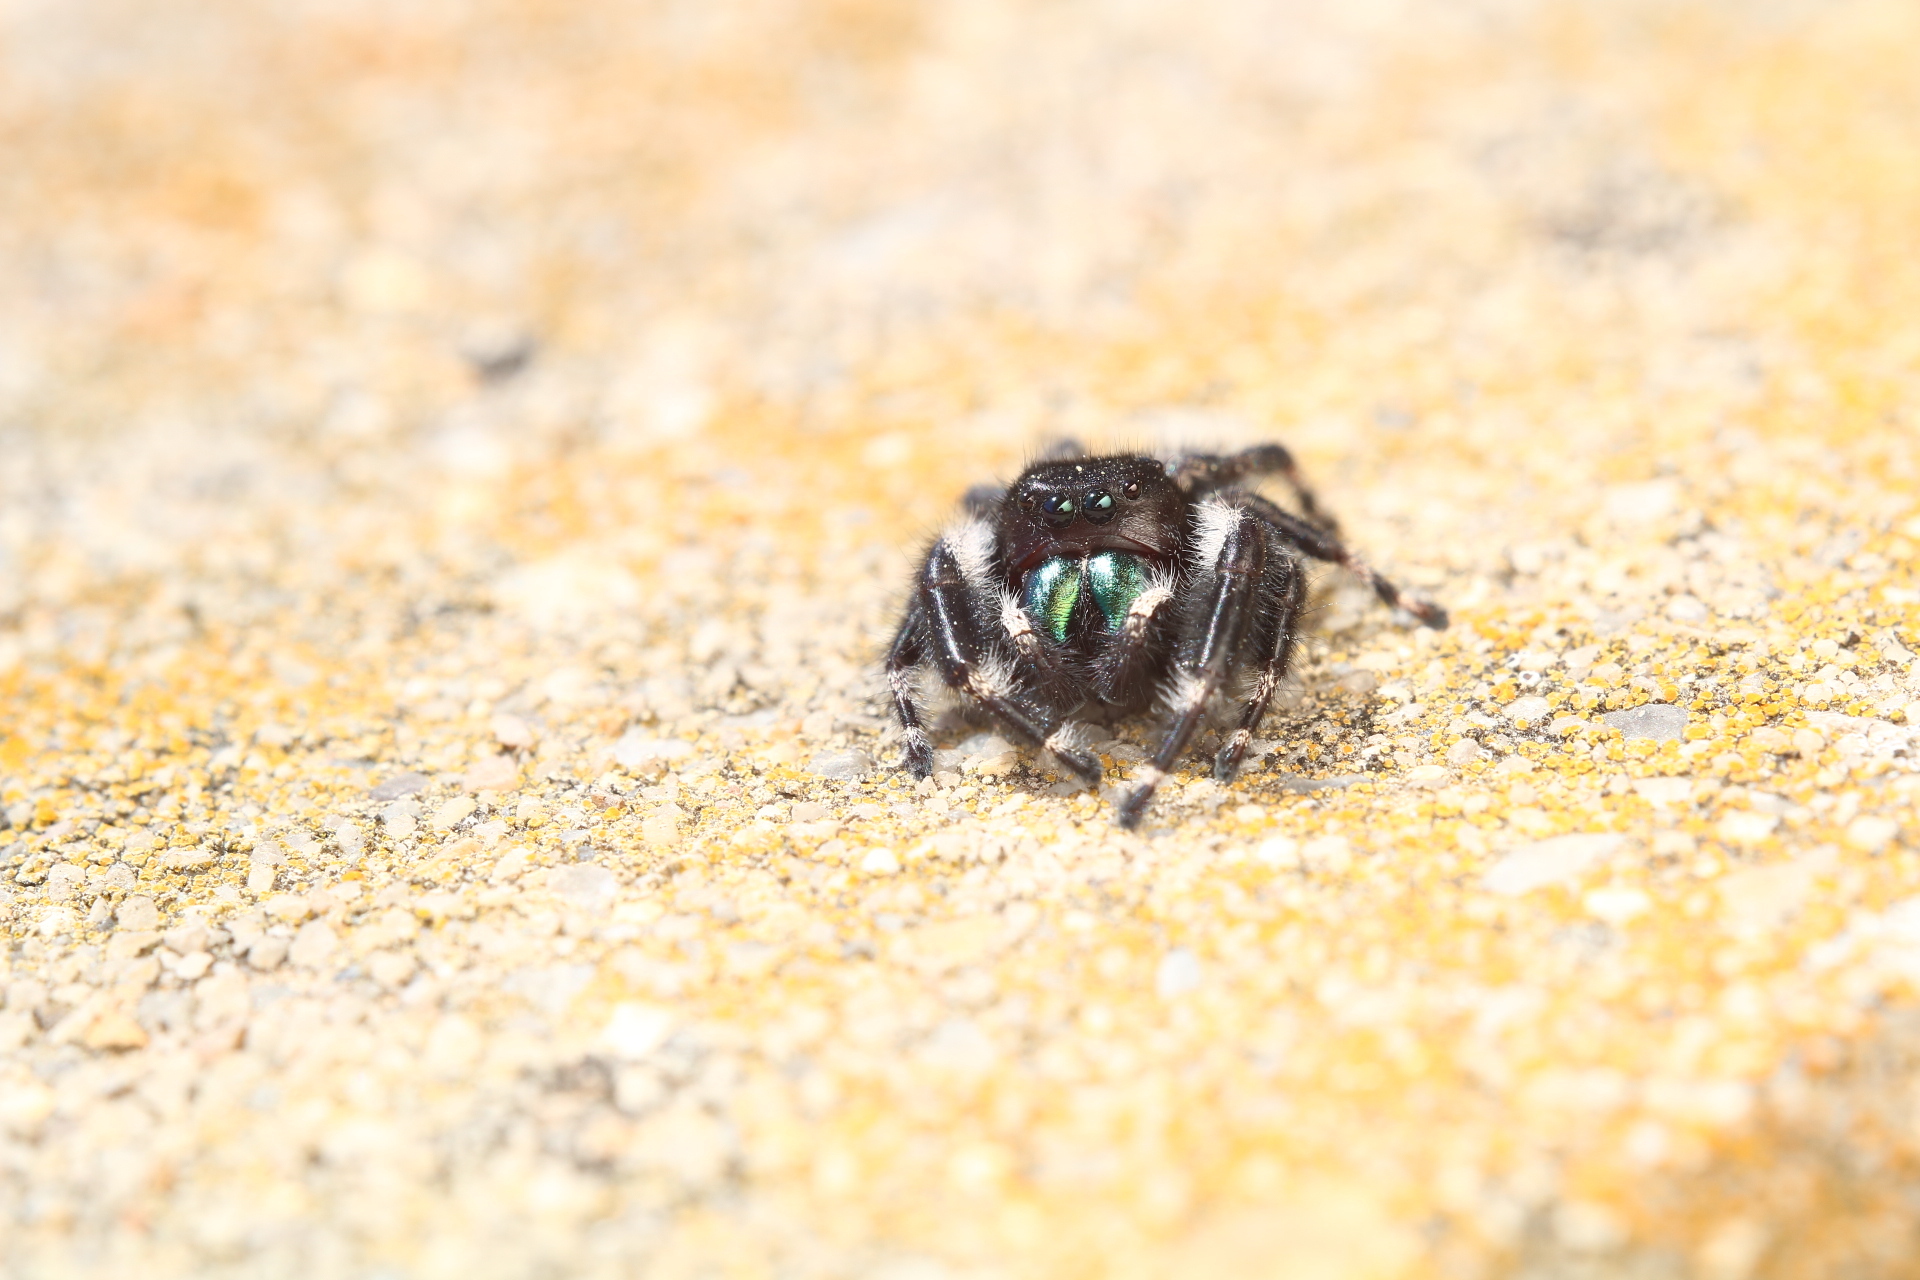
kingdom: Animalia
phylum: Arthropoda
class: Arachnida
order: Araneae
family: Salticidae
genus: Phidippus
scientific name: Phidippus audax
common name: Bold jumper
